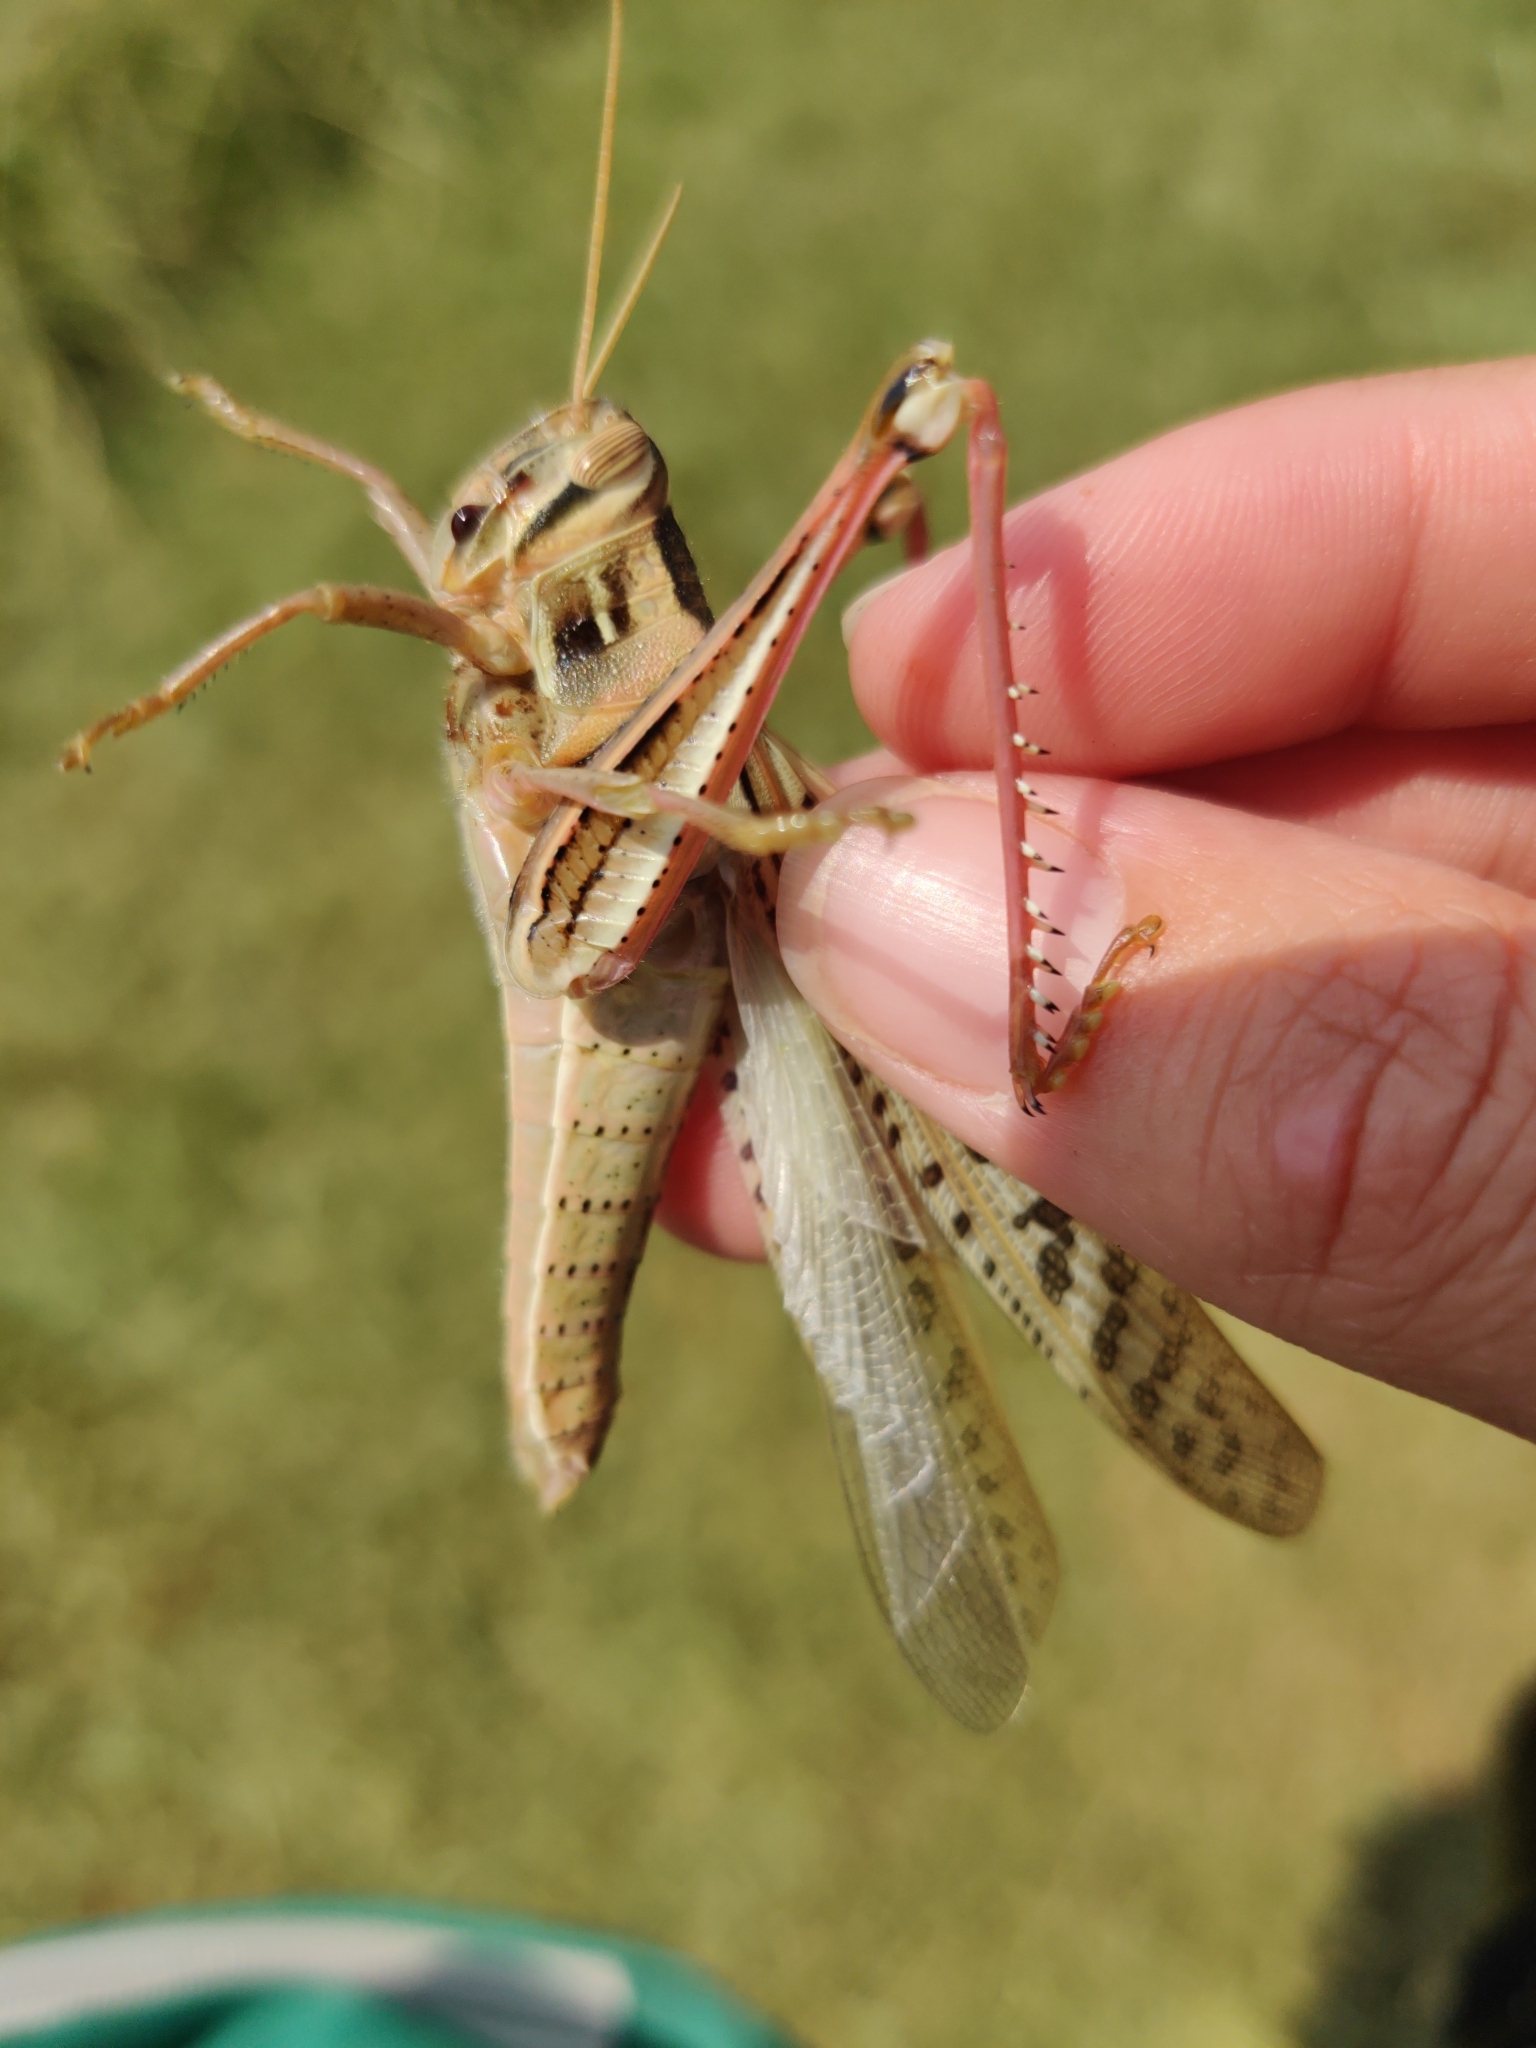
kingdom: Animalia
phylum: Arthropoda
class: Insecta
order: Orthoptera
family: Acrididae
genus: Schistocerca
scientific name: Schistocerca americana
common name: American bird locust
